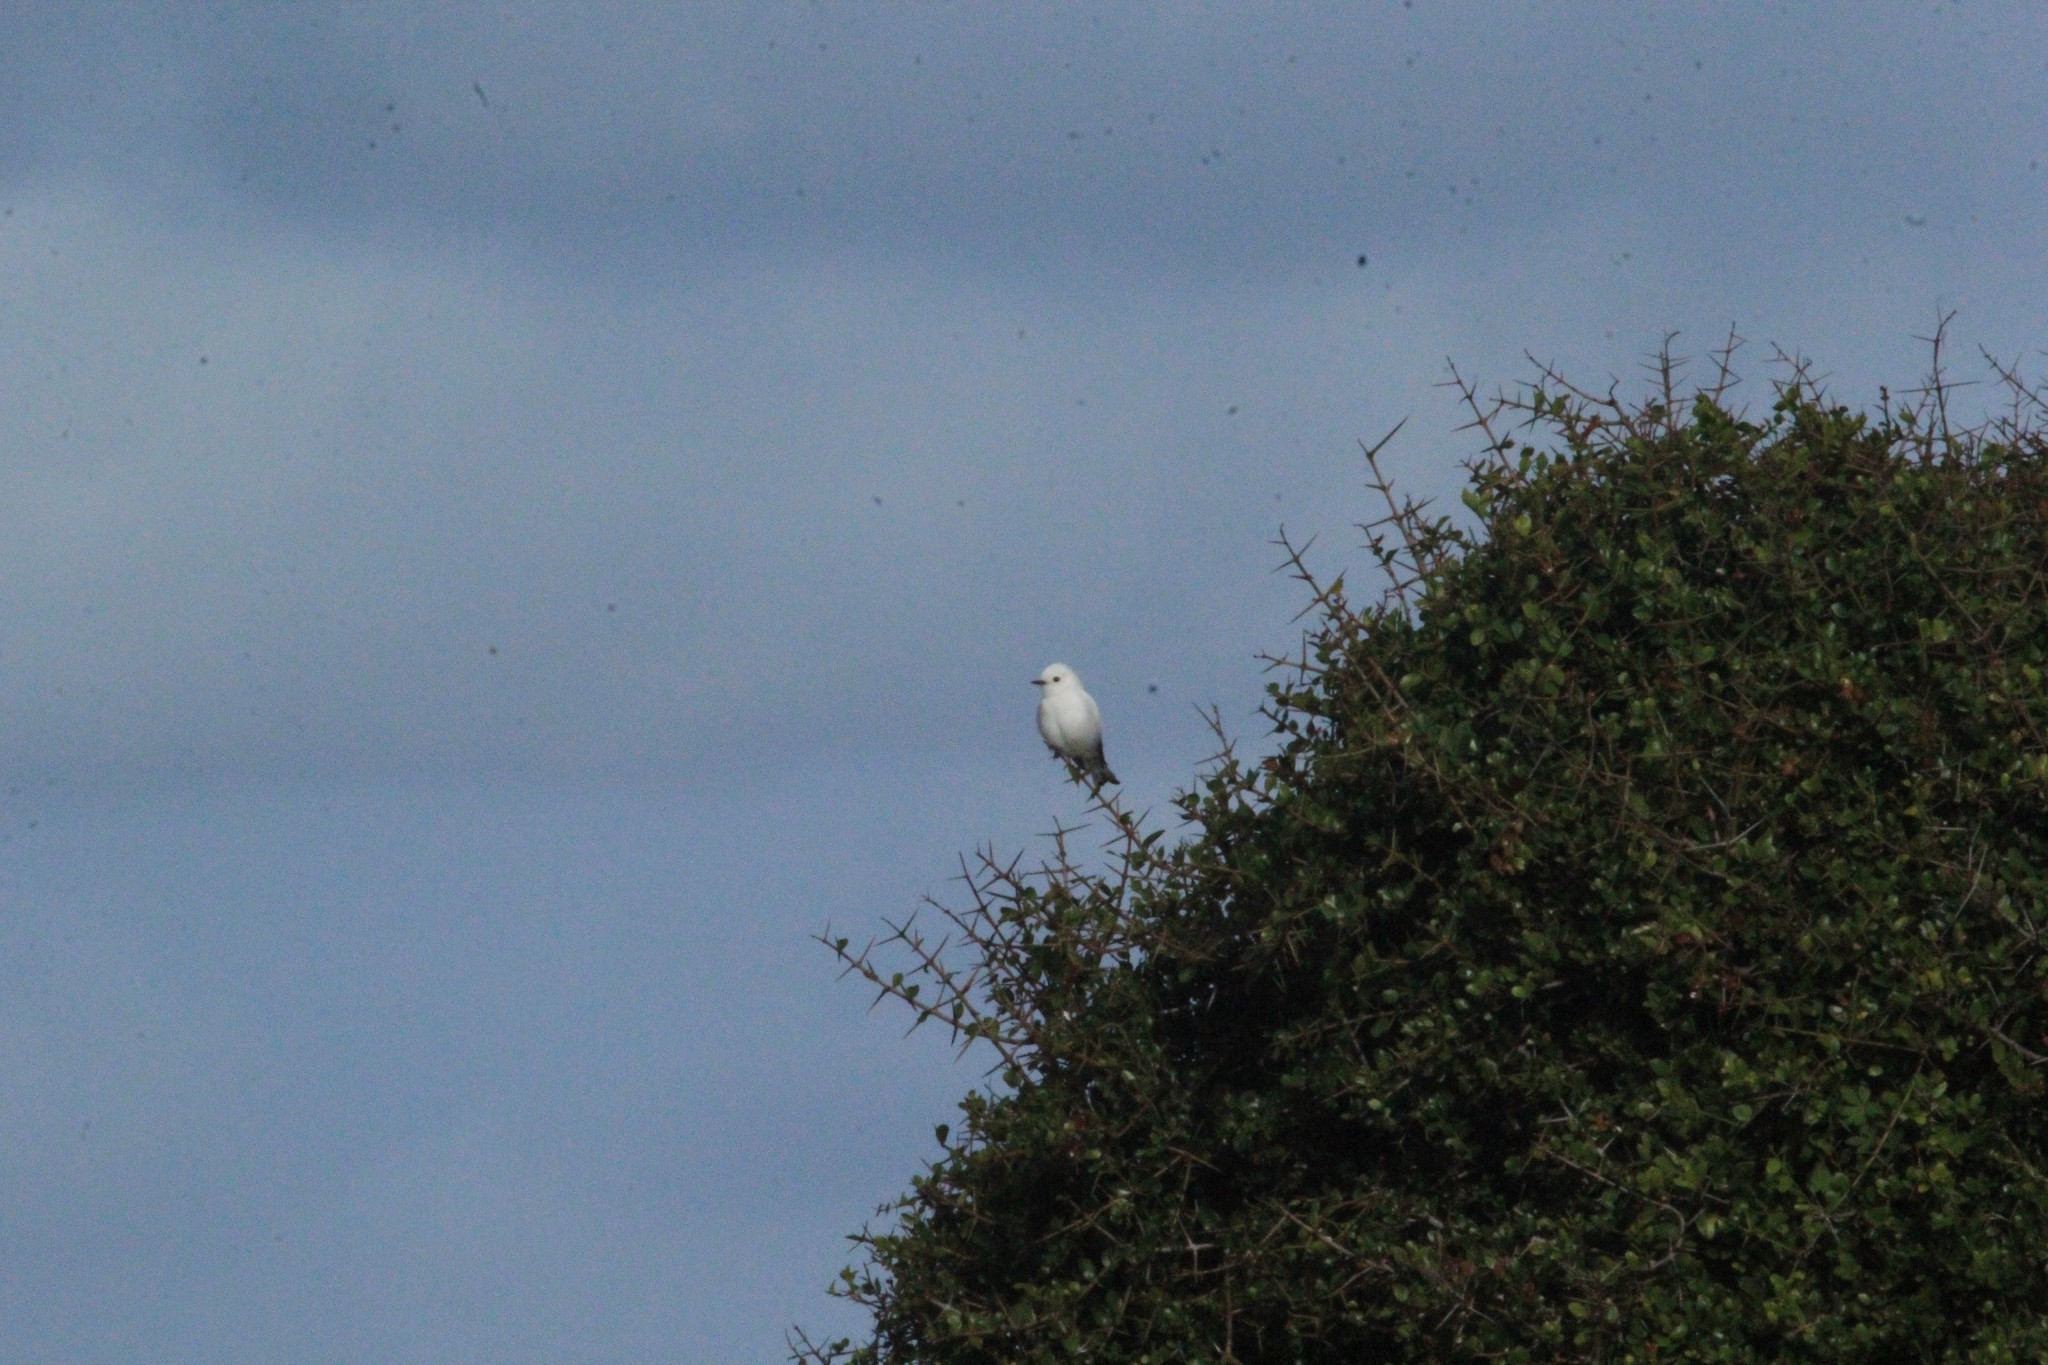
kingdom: Animalia
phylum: Chordata
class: Aves
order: Passeriformes
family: Tyrannidae
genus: Xolmis
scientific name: Xolmis irupero
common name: White monjita
